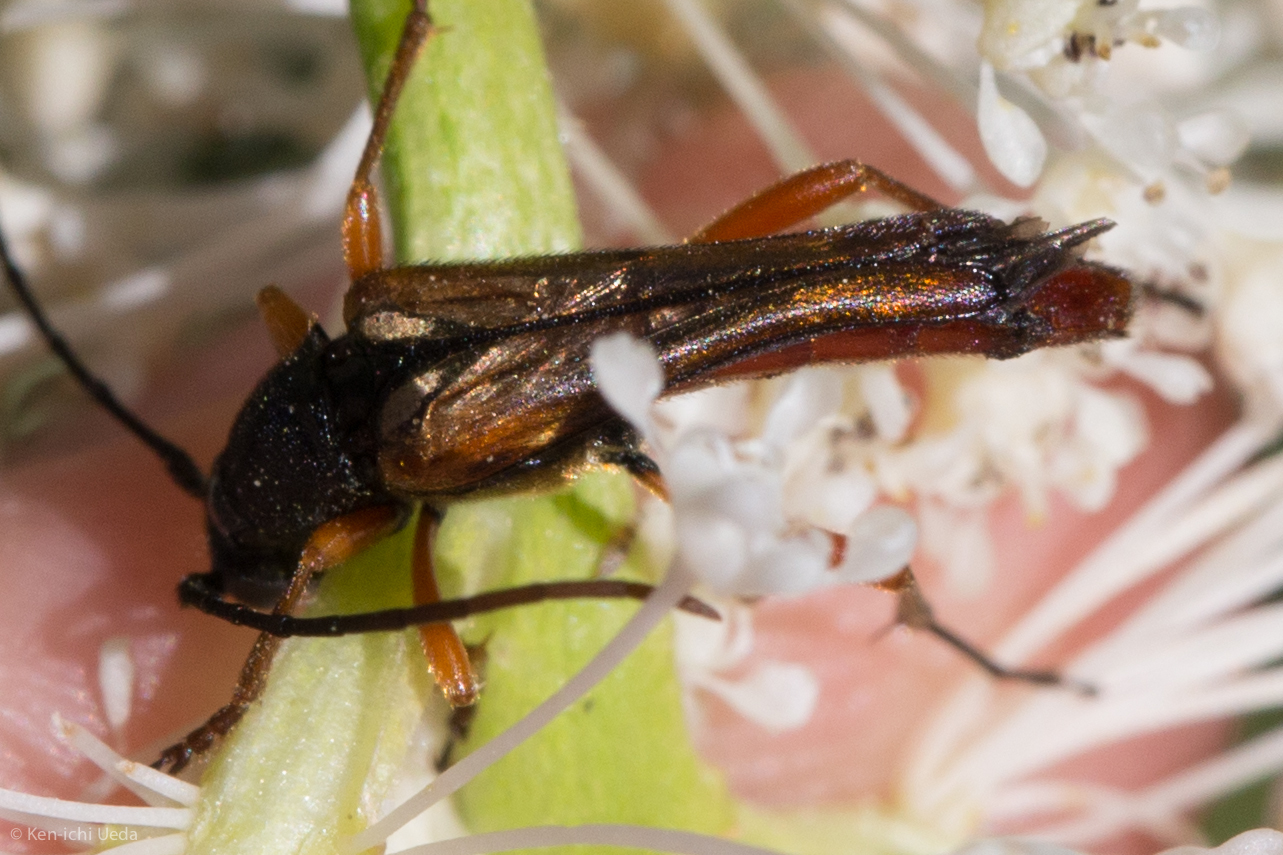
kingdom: Animalia
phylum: Arthropoda
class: Insecta
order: Coleoptera
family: Cerambycidae
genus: Neobellamira
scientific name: Neobellamira delicata
